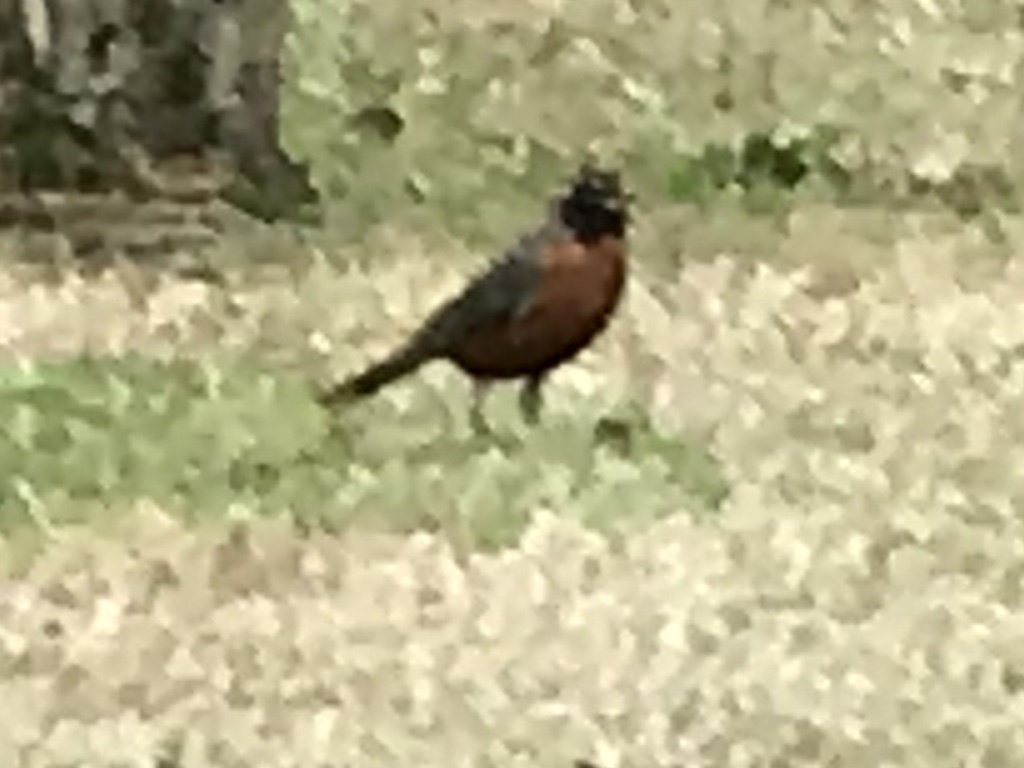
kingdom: Animalia
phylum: Chordata
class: Aves
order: Passeriformes
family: Turdidae
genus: Turdus
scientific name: Turdus migratorius
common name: American robin
